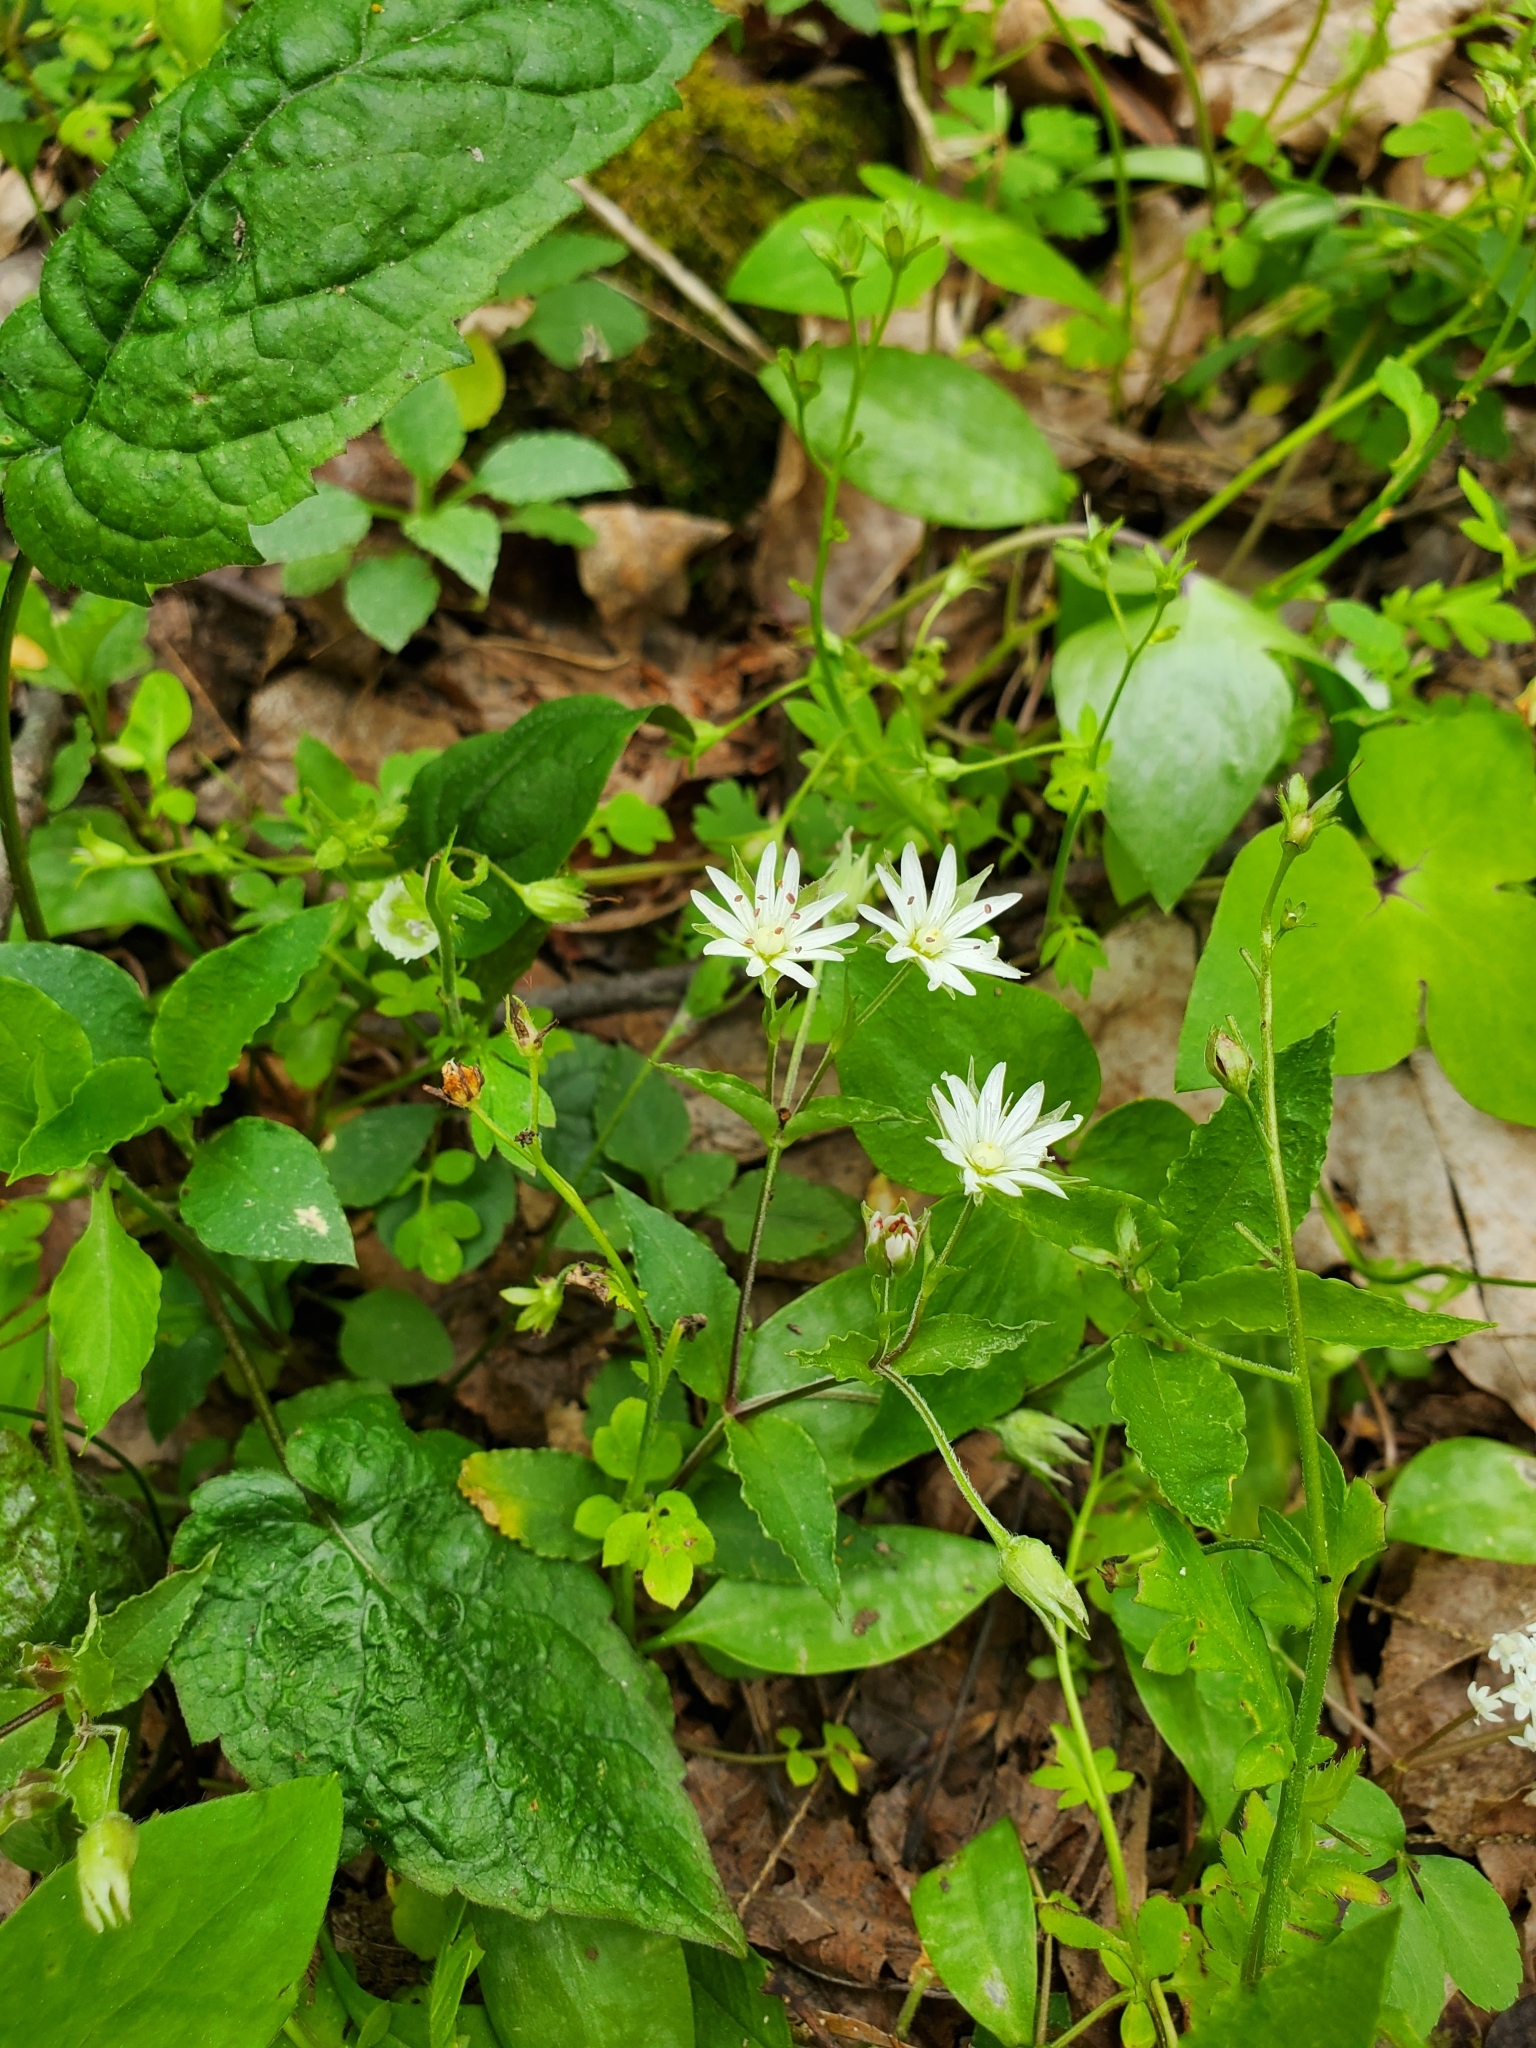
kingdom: Plantae
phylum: Tracheophyta
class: Magnoliopsida
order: Caryophyllales
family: Caryophyllaceae
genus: Stellaria
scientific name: Stellaria corei
